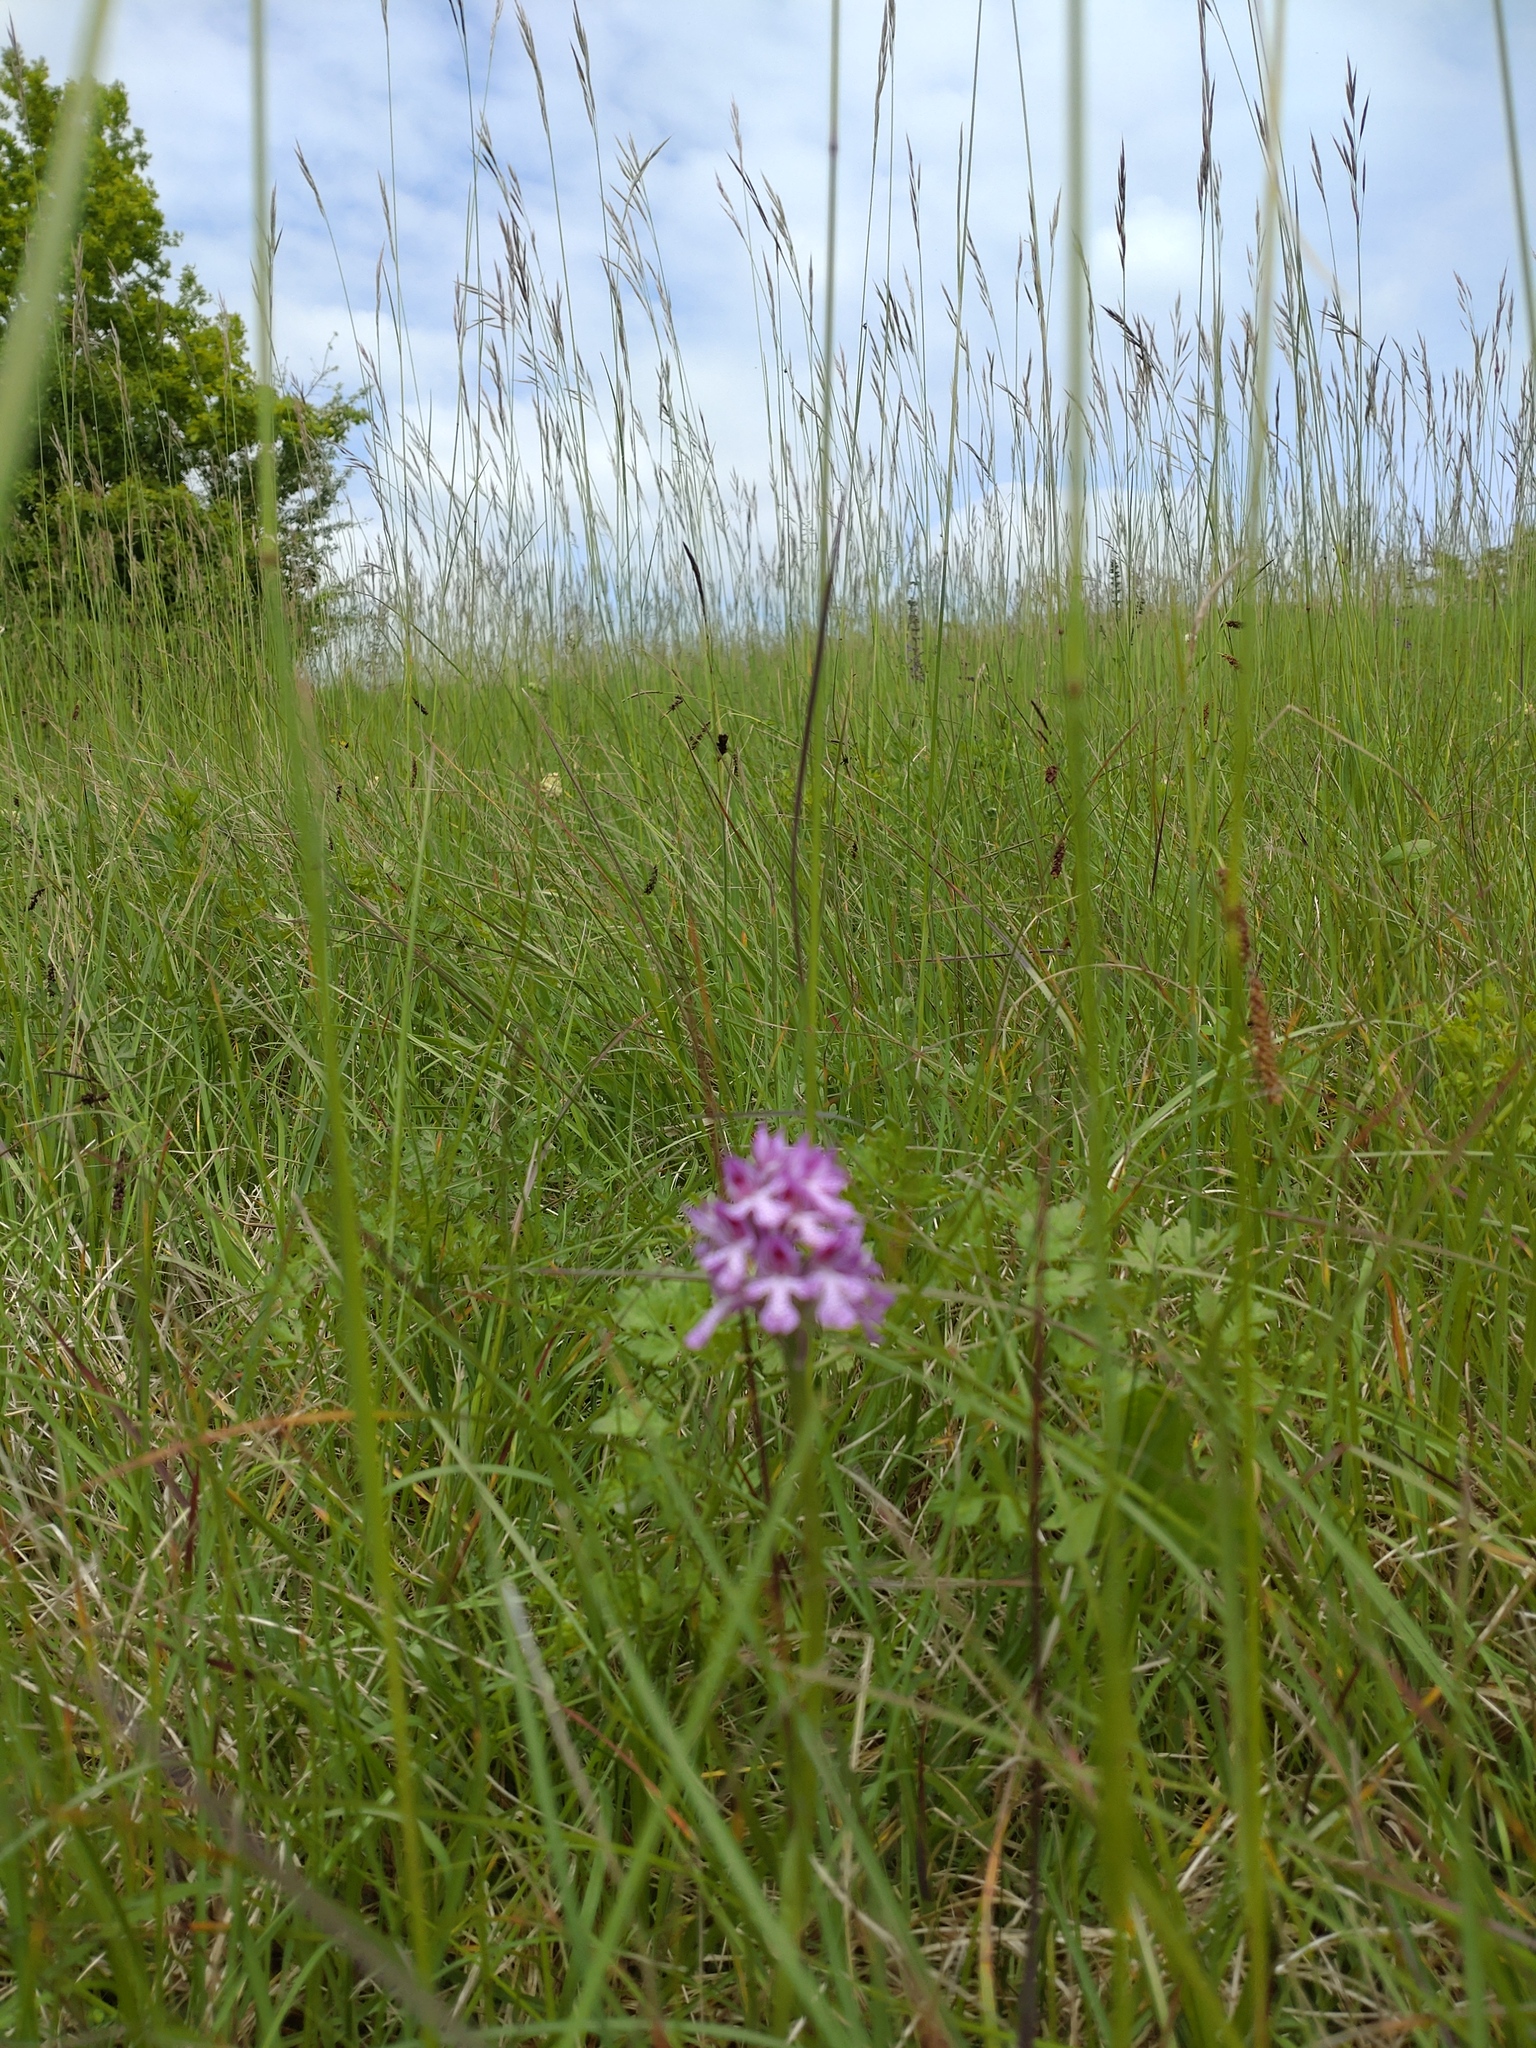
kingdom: Plantae
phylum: Tracheophyta
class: Liliopsida
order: Asparagales
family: Orchidaceae
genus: Neotinea
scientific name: Neotinea tridentata
